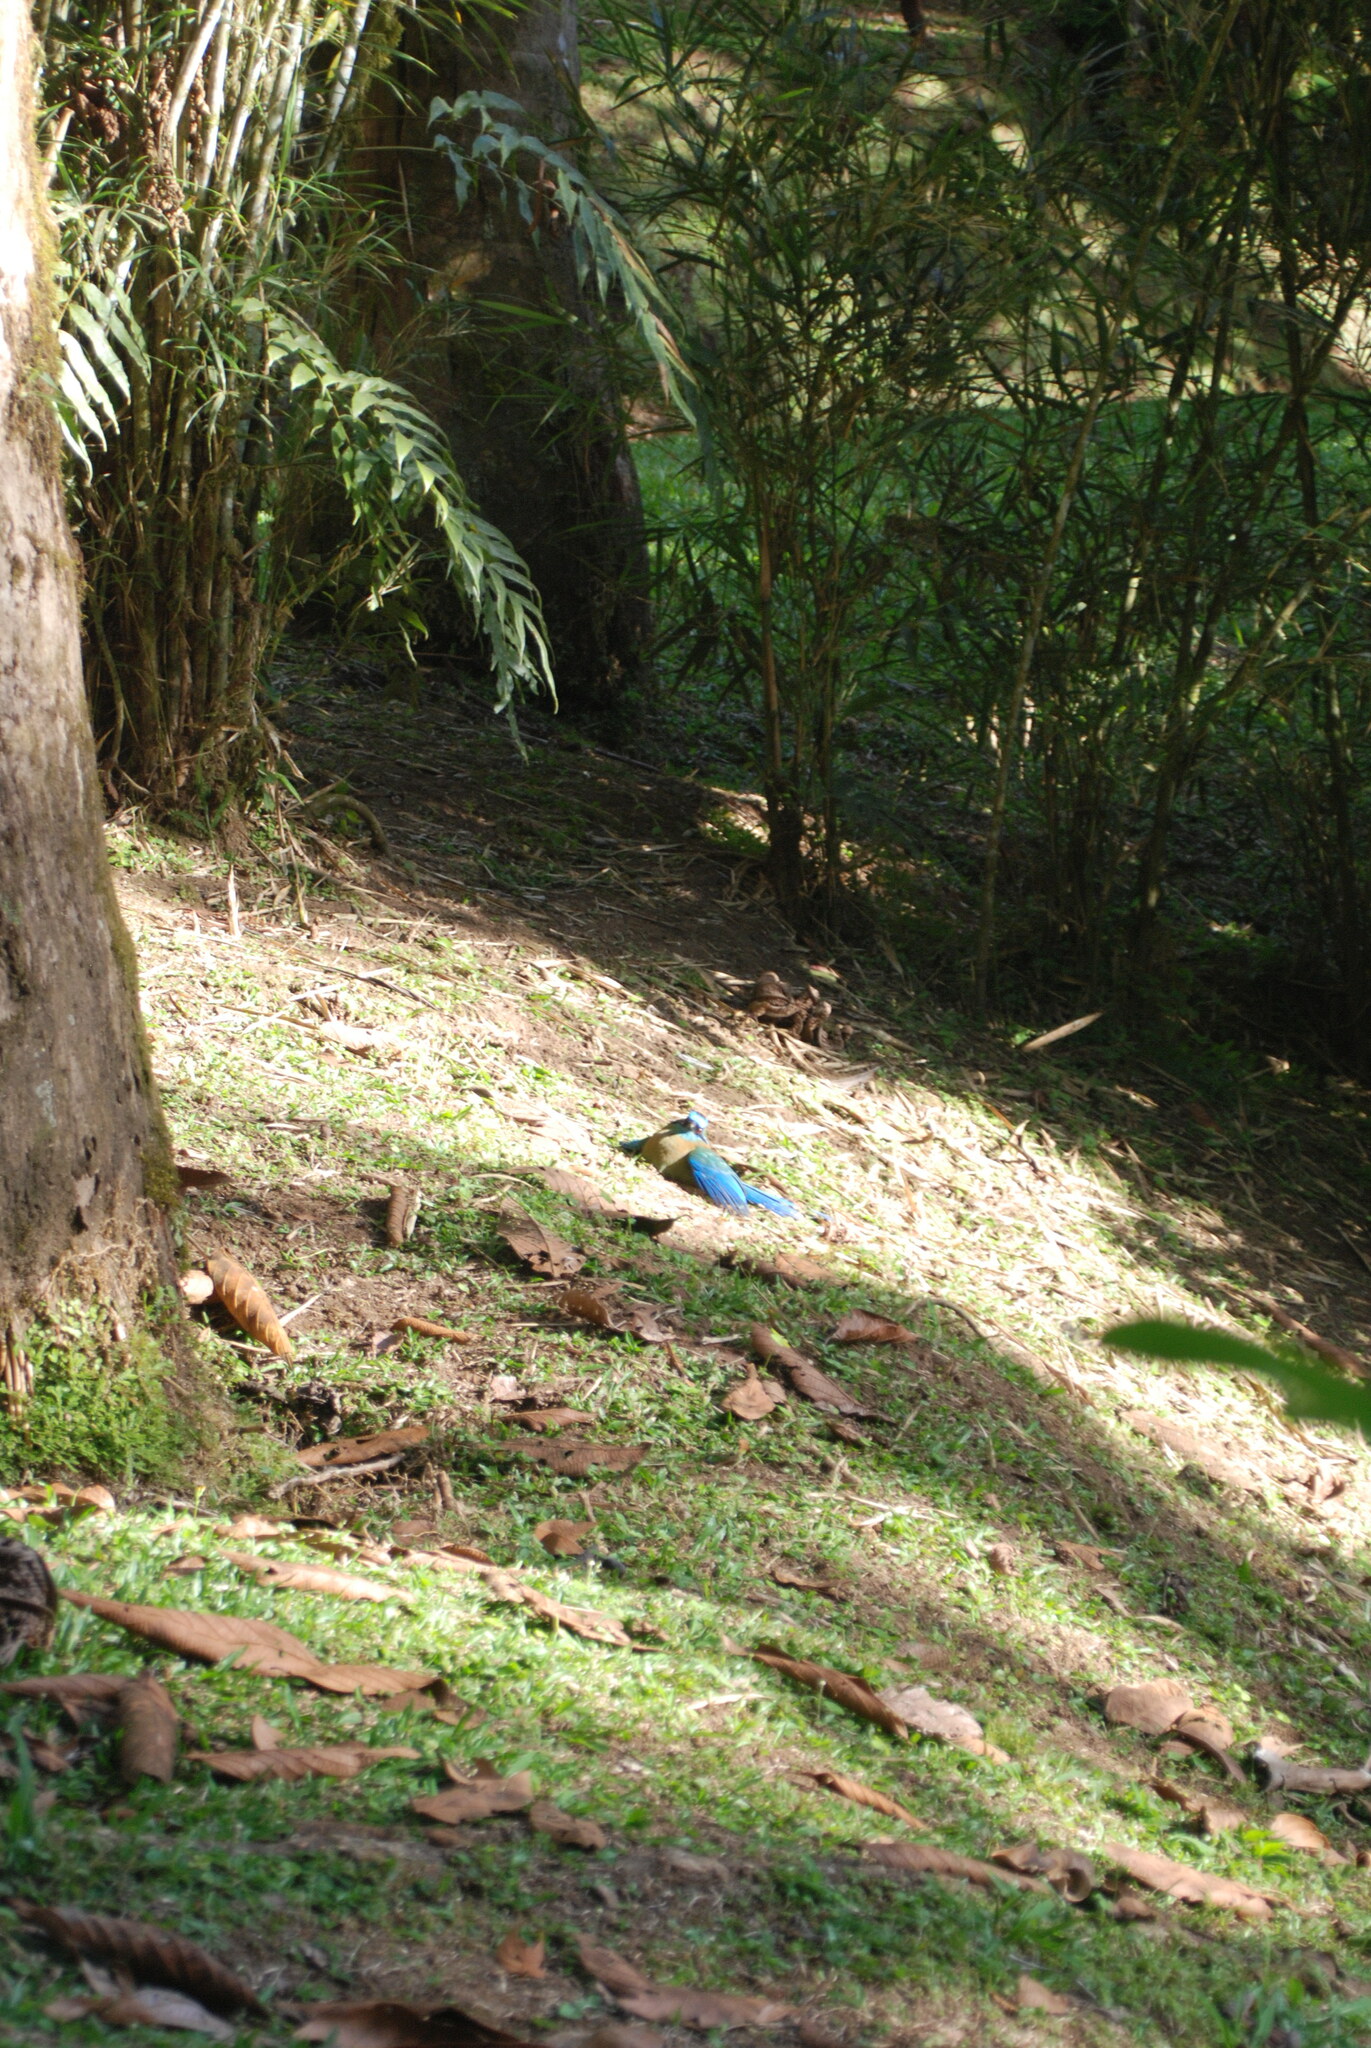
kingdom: Animalia
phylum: Chordata
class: Aves
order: Coraciiformes
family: Momotidae
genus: Momotus
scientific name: Momotus lessonii
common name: Lesson's motmot
